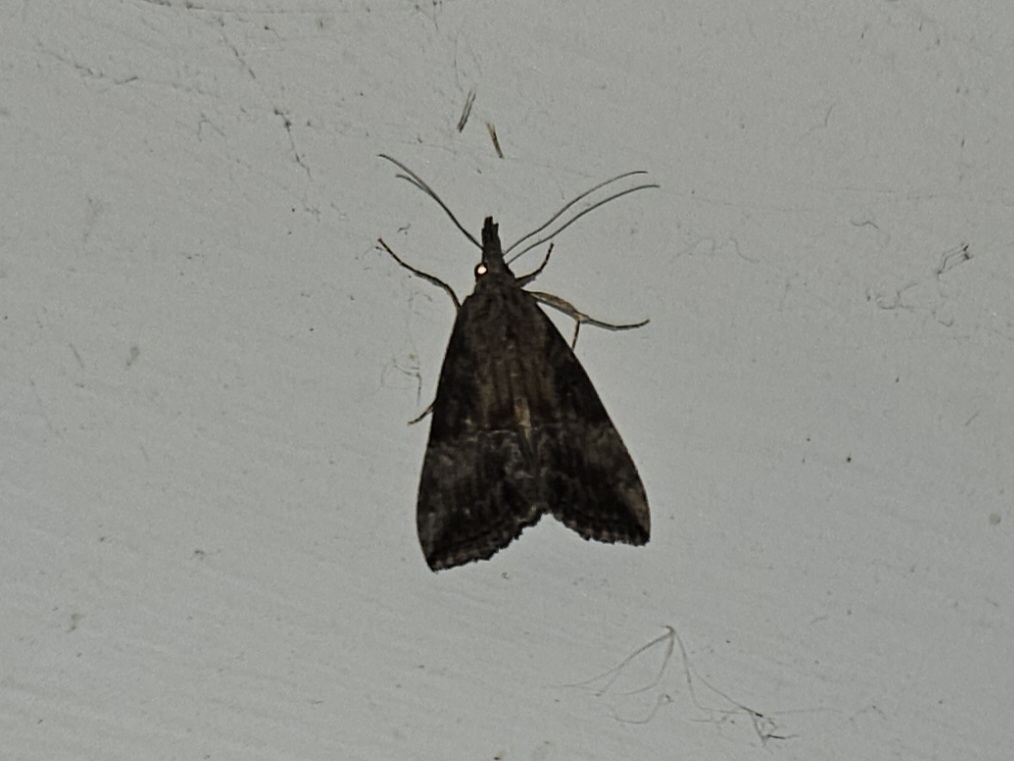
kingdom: Animalia
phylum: Arthropoda
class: Insecta
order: Lepidoptera
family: Erebidae
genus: Hypena
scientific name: Hypena scabra
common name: Green cloverworm
